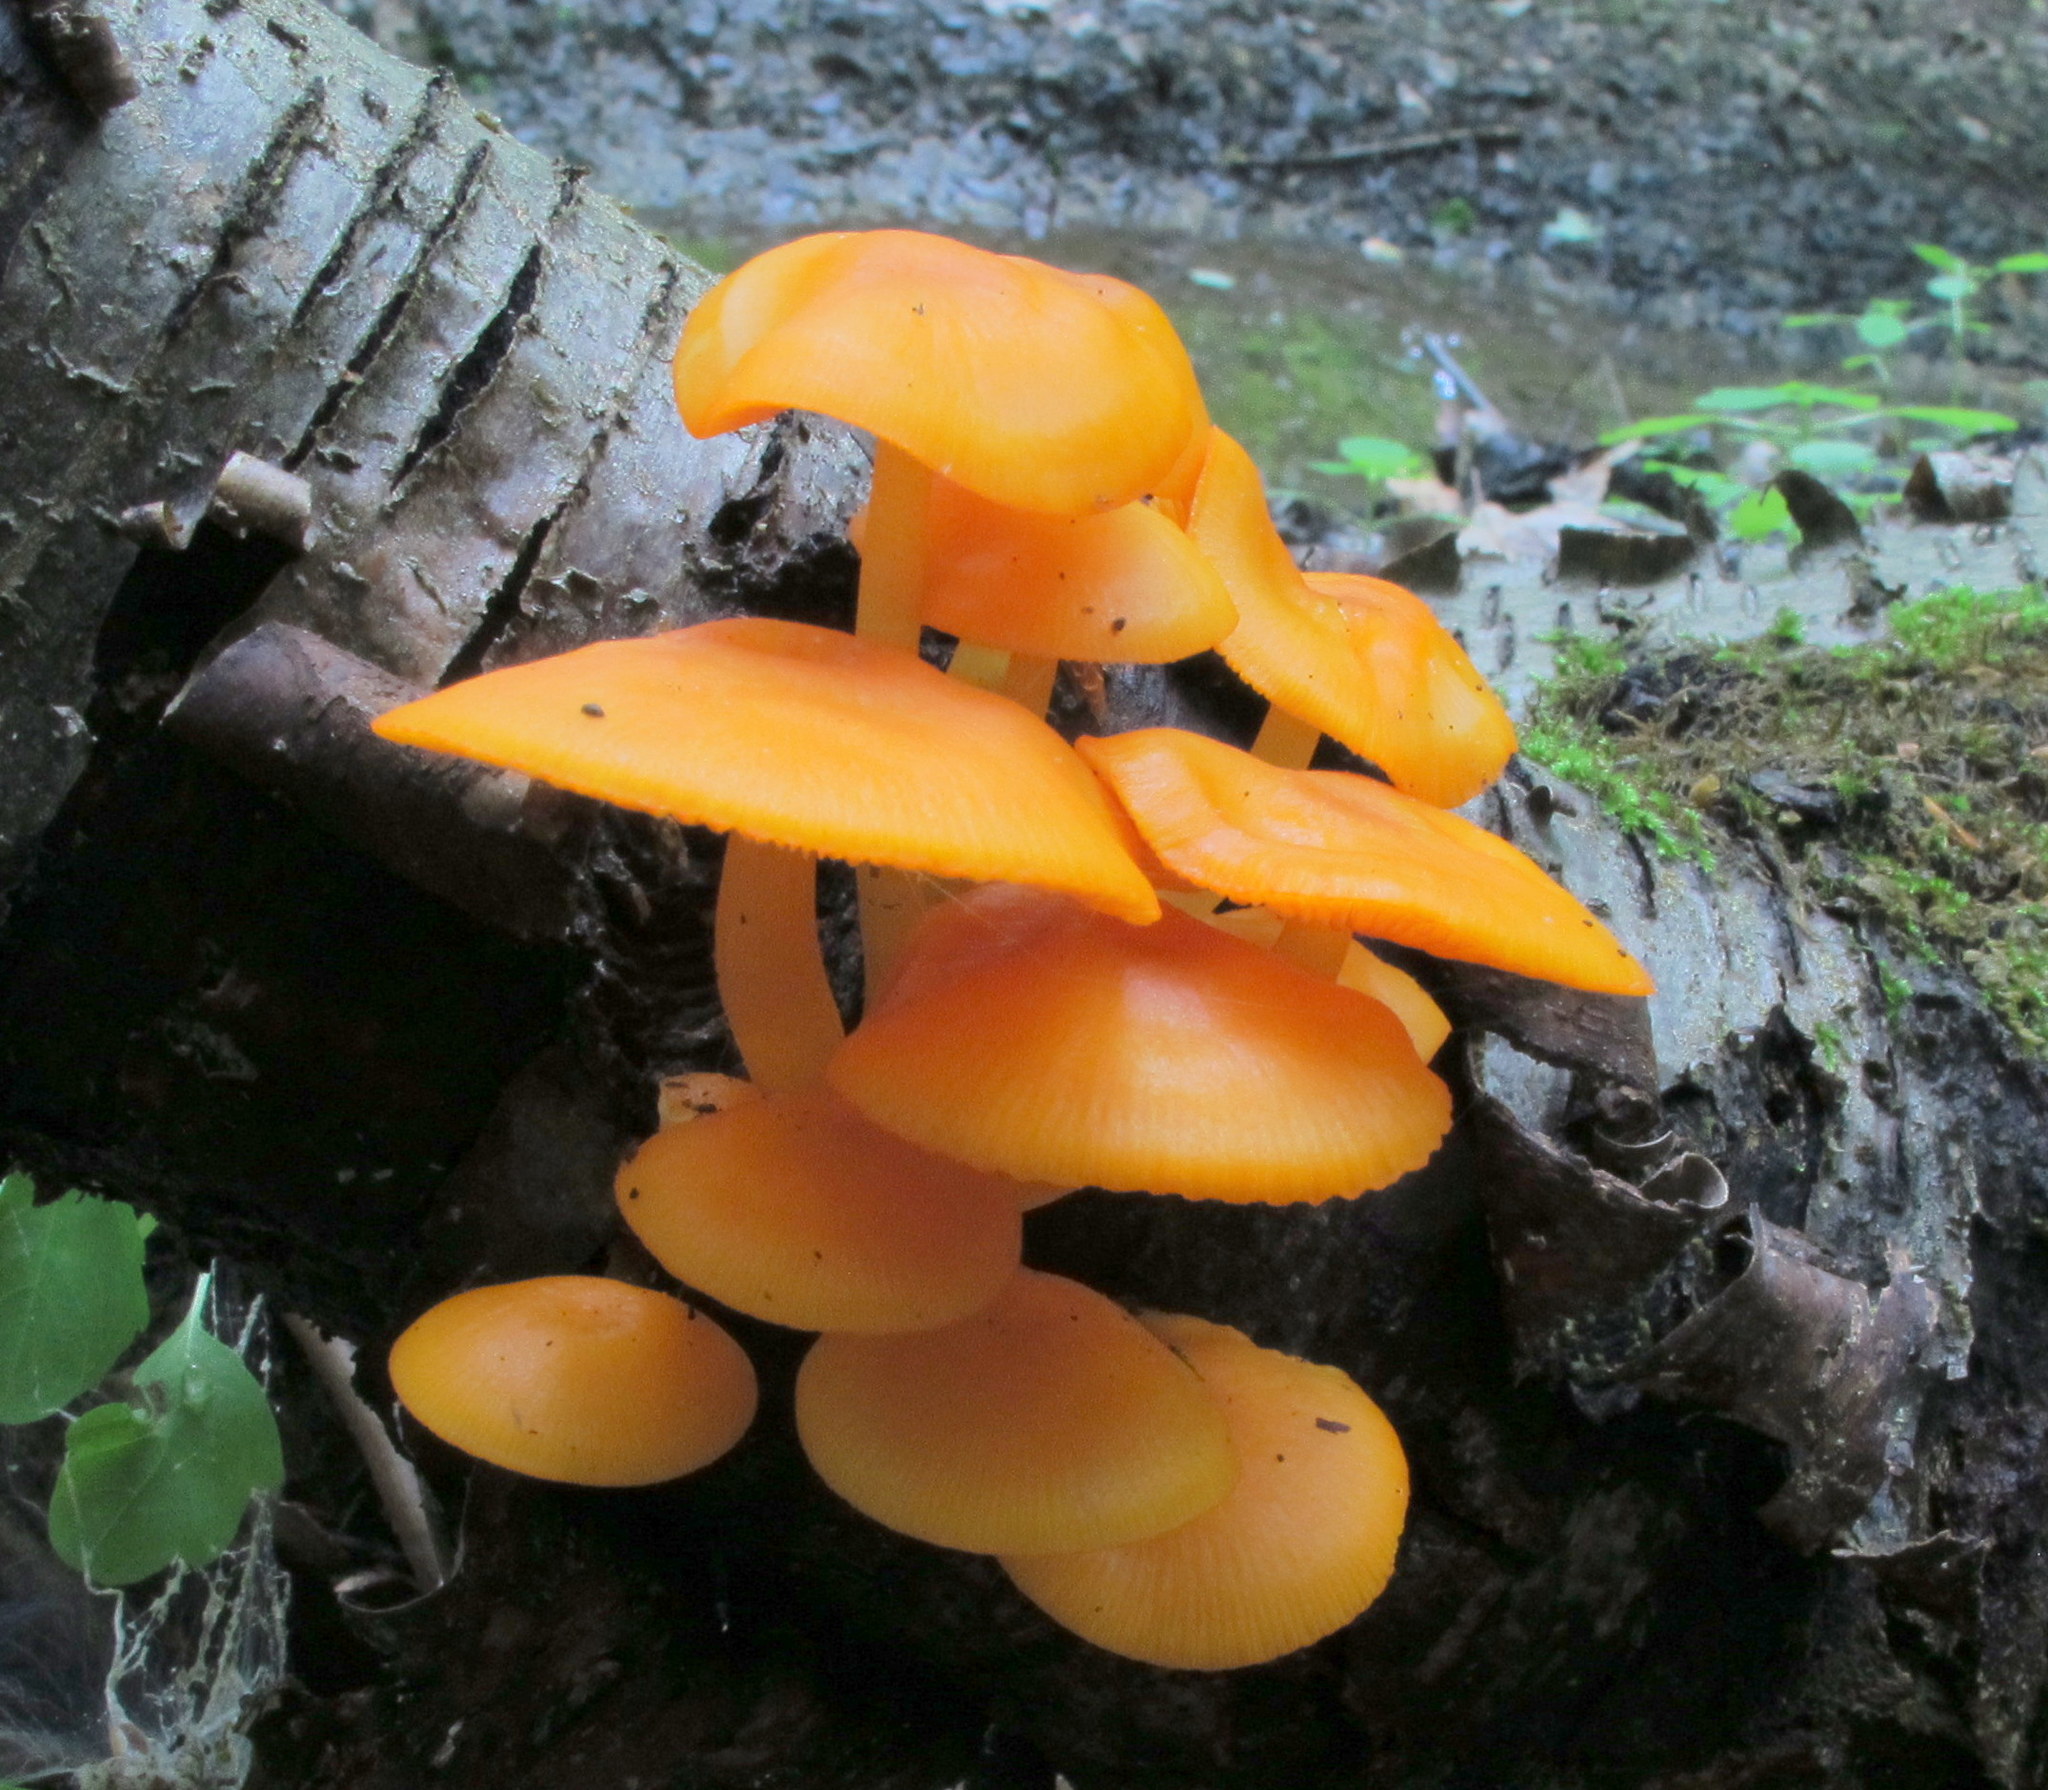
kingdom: Fungi
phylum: Basidiomycota
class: Agaricomycetes
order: Agaricales
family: Mycenaceae
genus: Mycena
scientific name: Mycena leaiana
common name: Orange mycena
